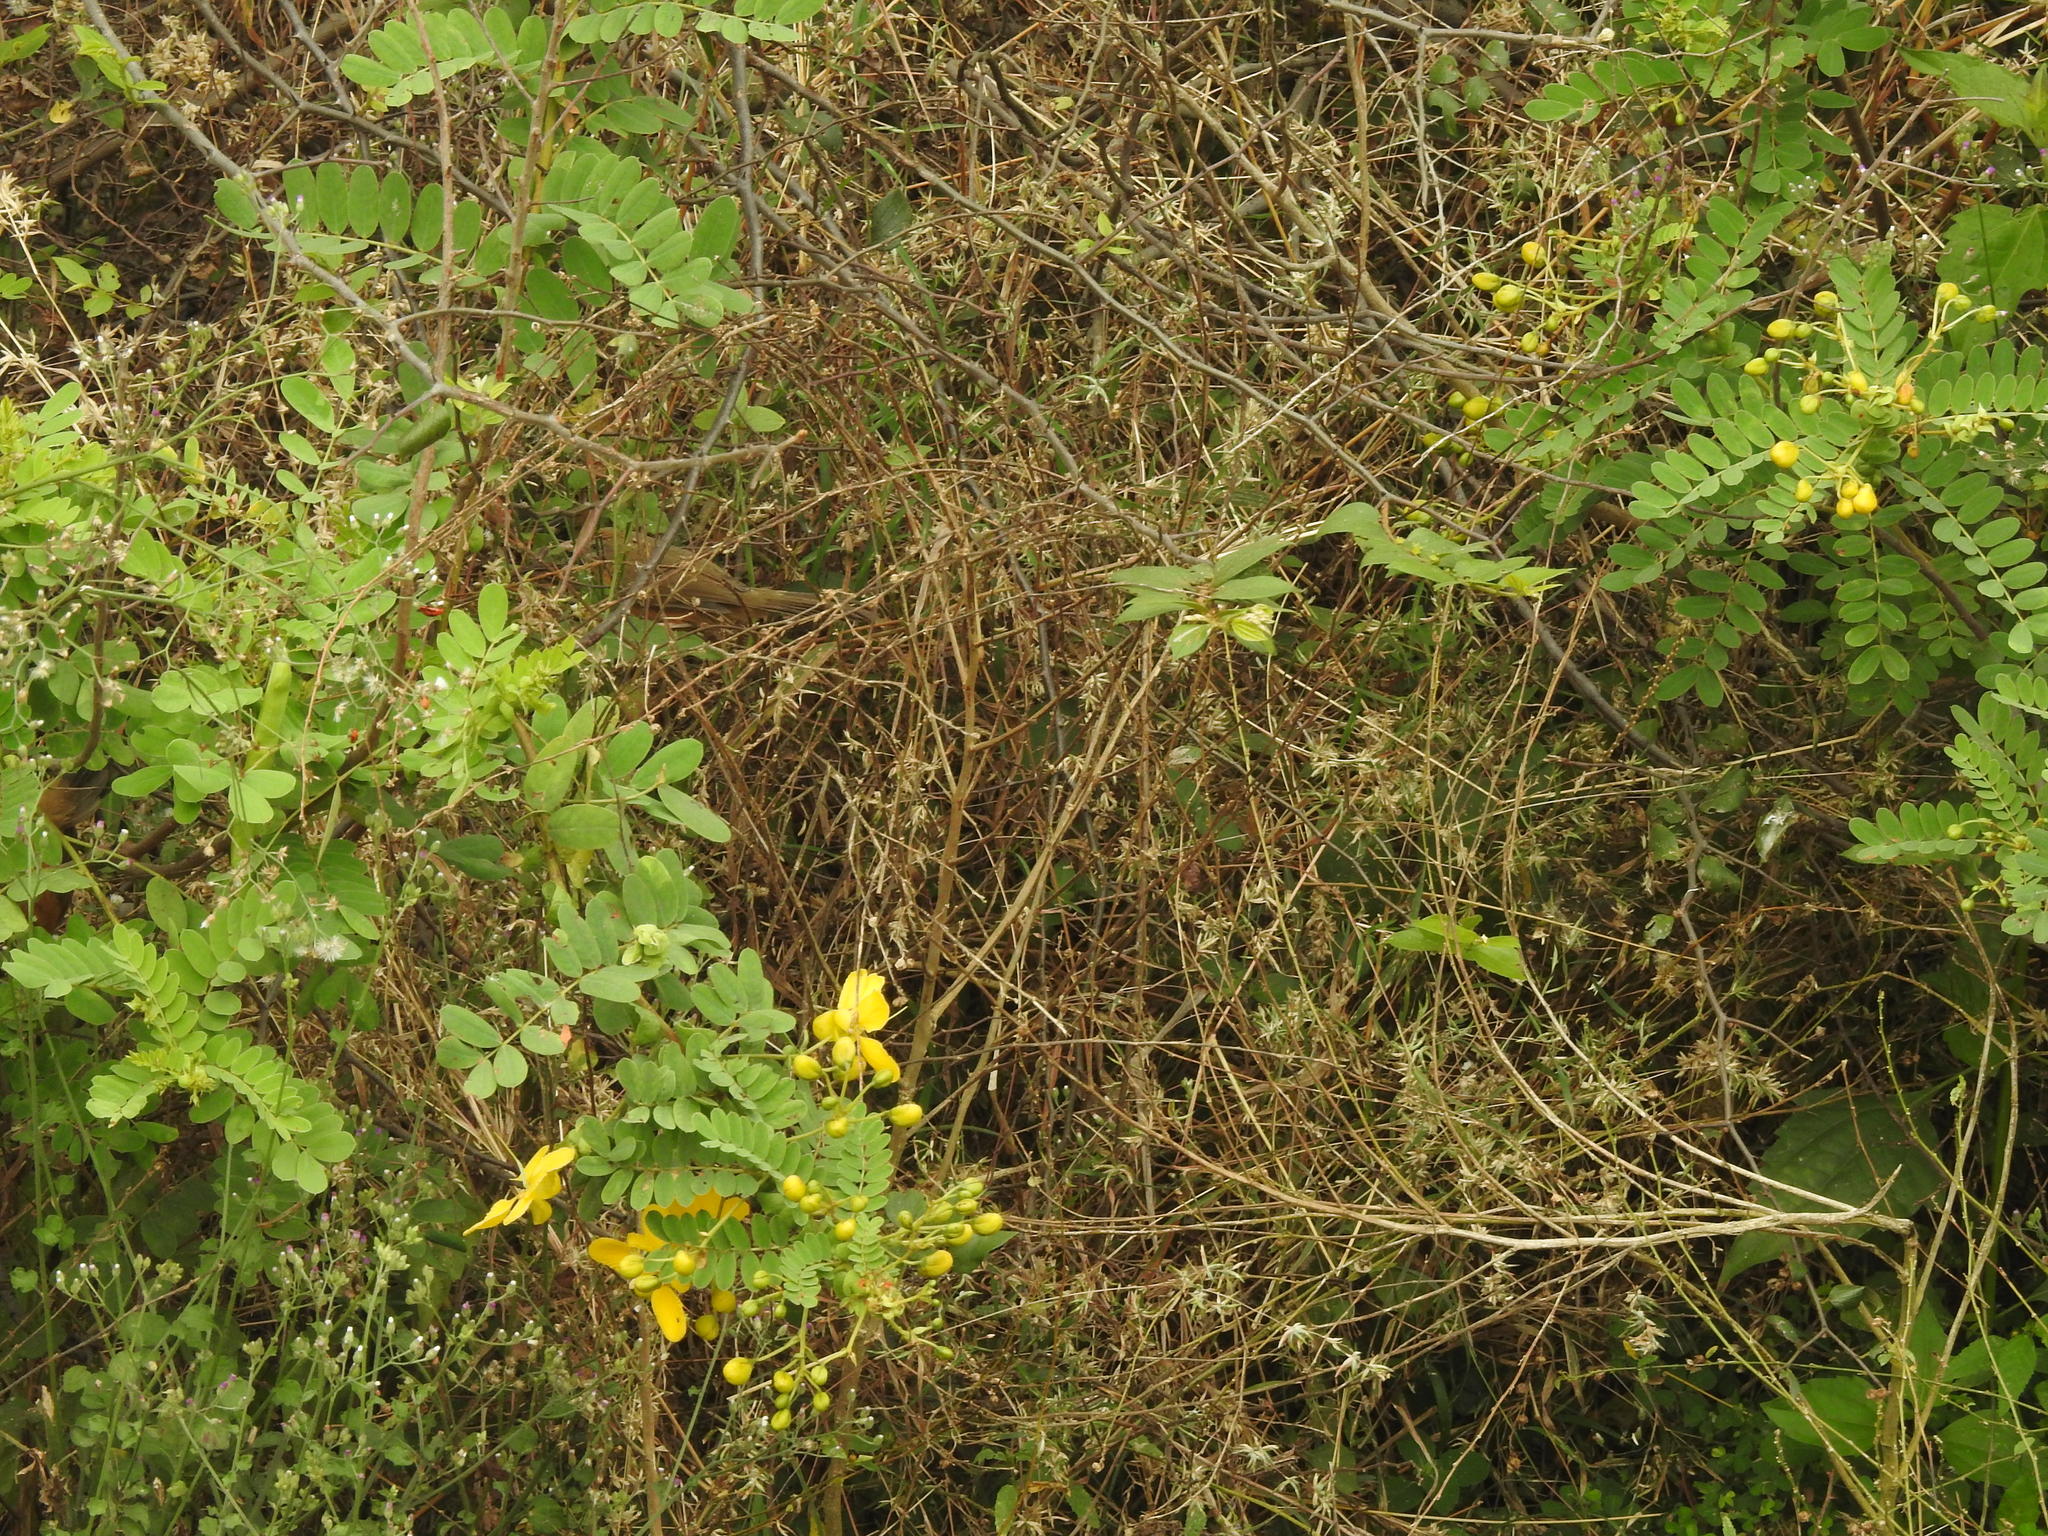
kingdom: Animalia
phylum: Chordata
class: Aves
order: Passeriformes
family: Timaliidae
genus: Dumetia
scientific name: Dumetia hyperythra
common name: Tawny-bellied babbler
